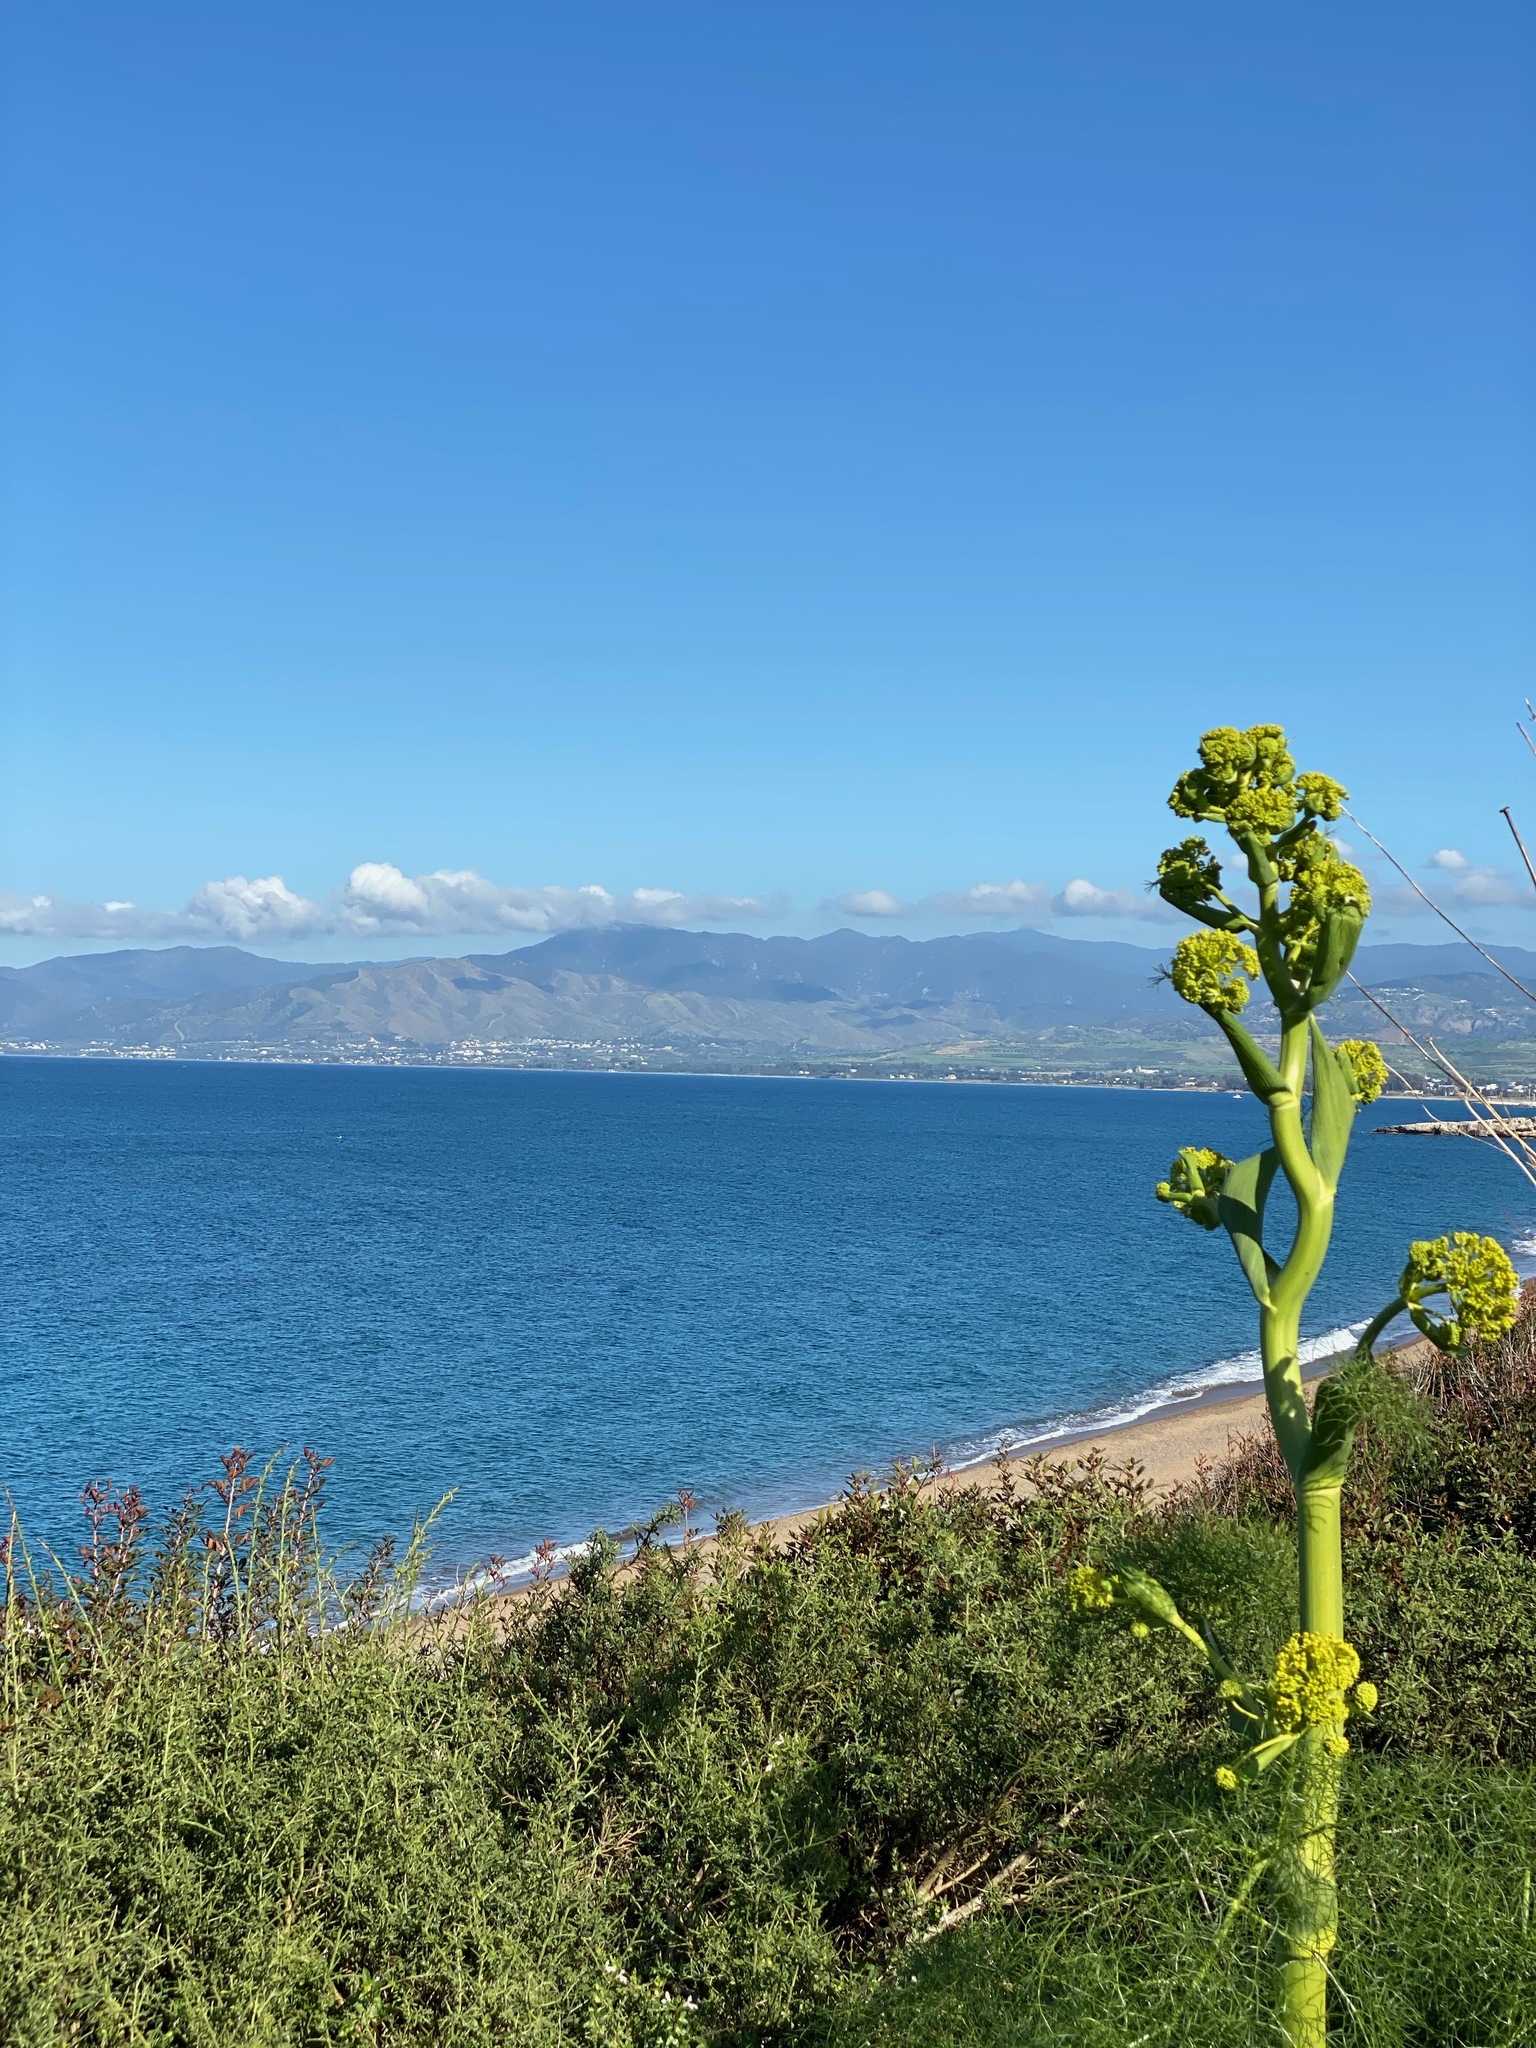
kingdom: Plantae
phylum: Tracheophyta
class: Magnoliopsida
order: Apiales
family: Apiaceae
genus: Ferula
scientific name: Ferula communis
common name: Giant fennel
